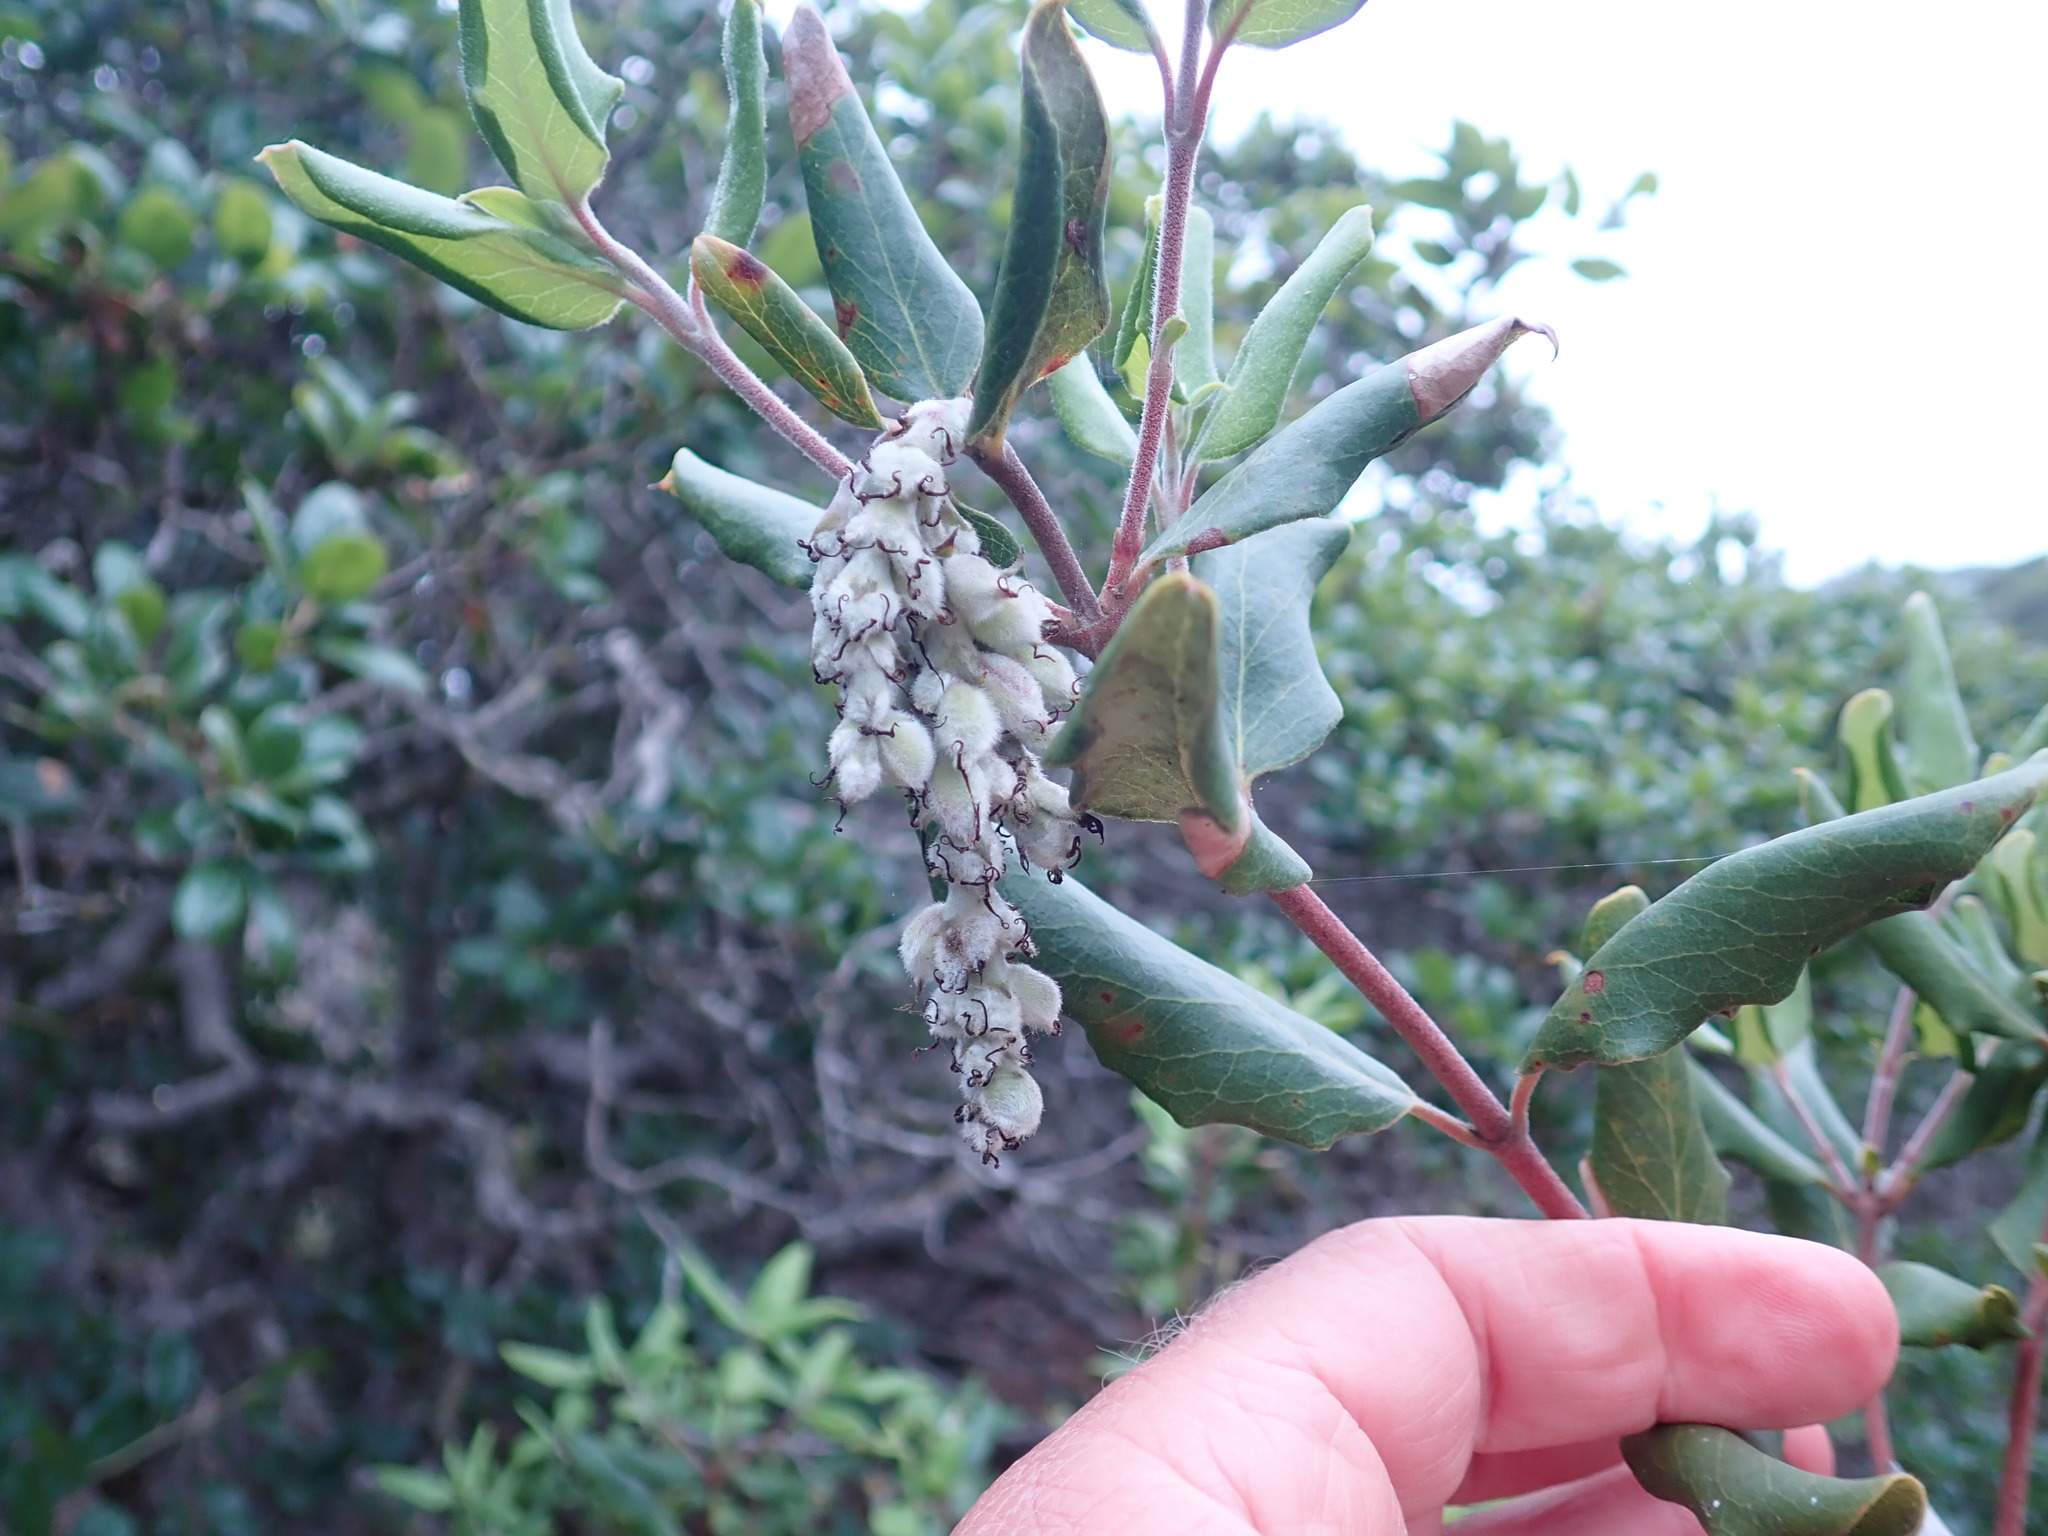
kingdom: Plantae
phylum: Tracheophyta
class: Magnoliopsida
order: Garryales
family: Garryaceae
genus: Garrya
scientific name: Garrya elliptica
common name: Silk-tassel
